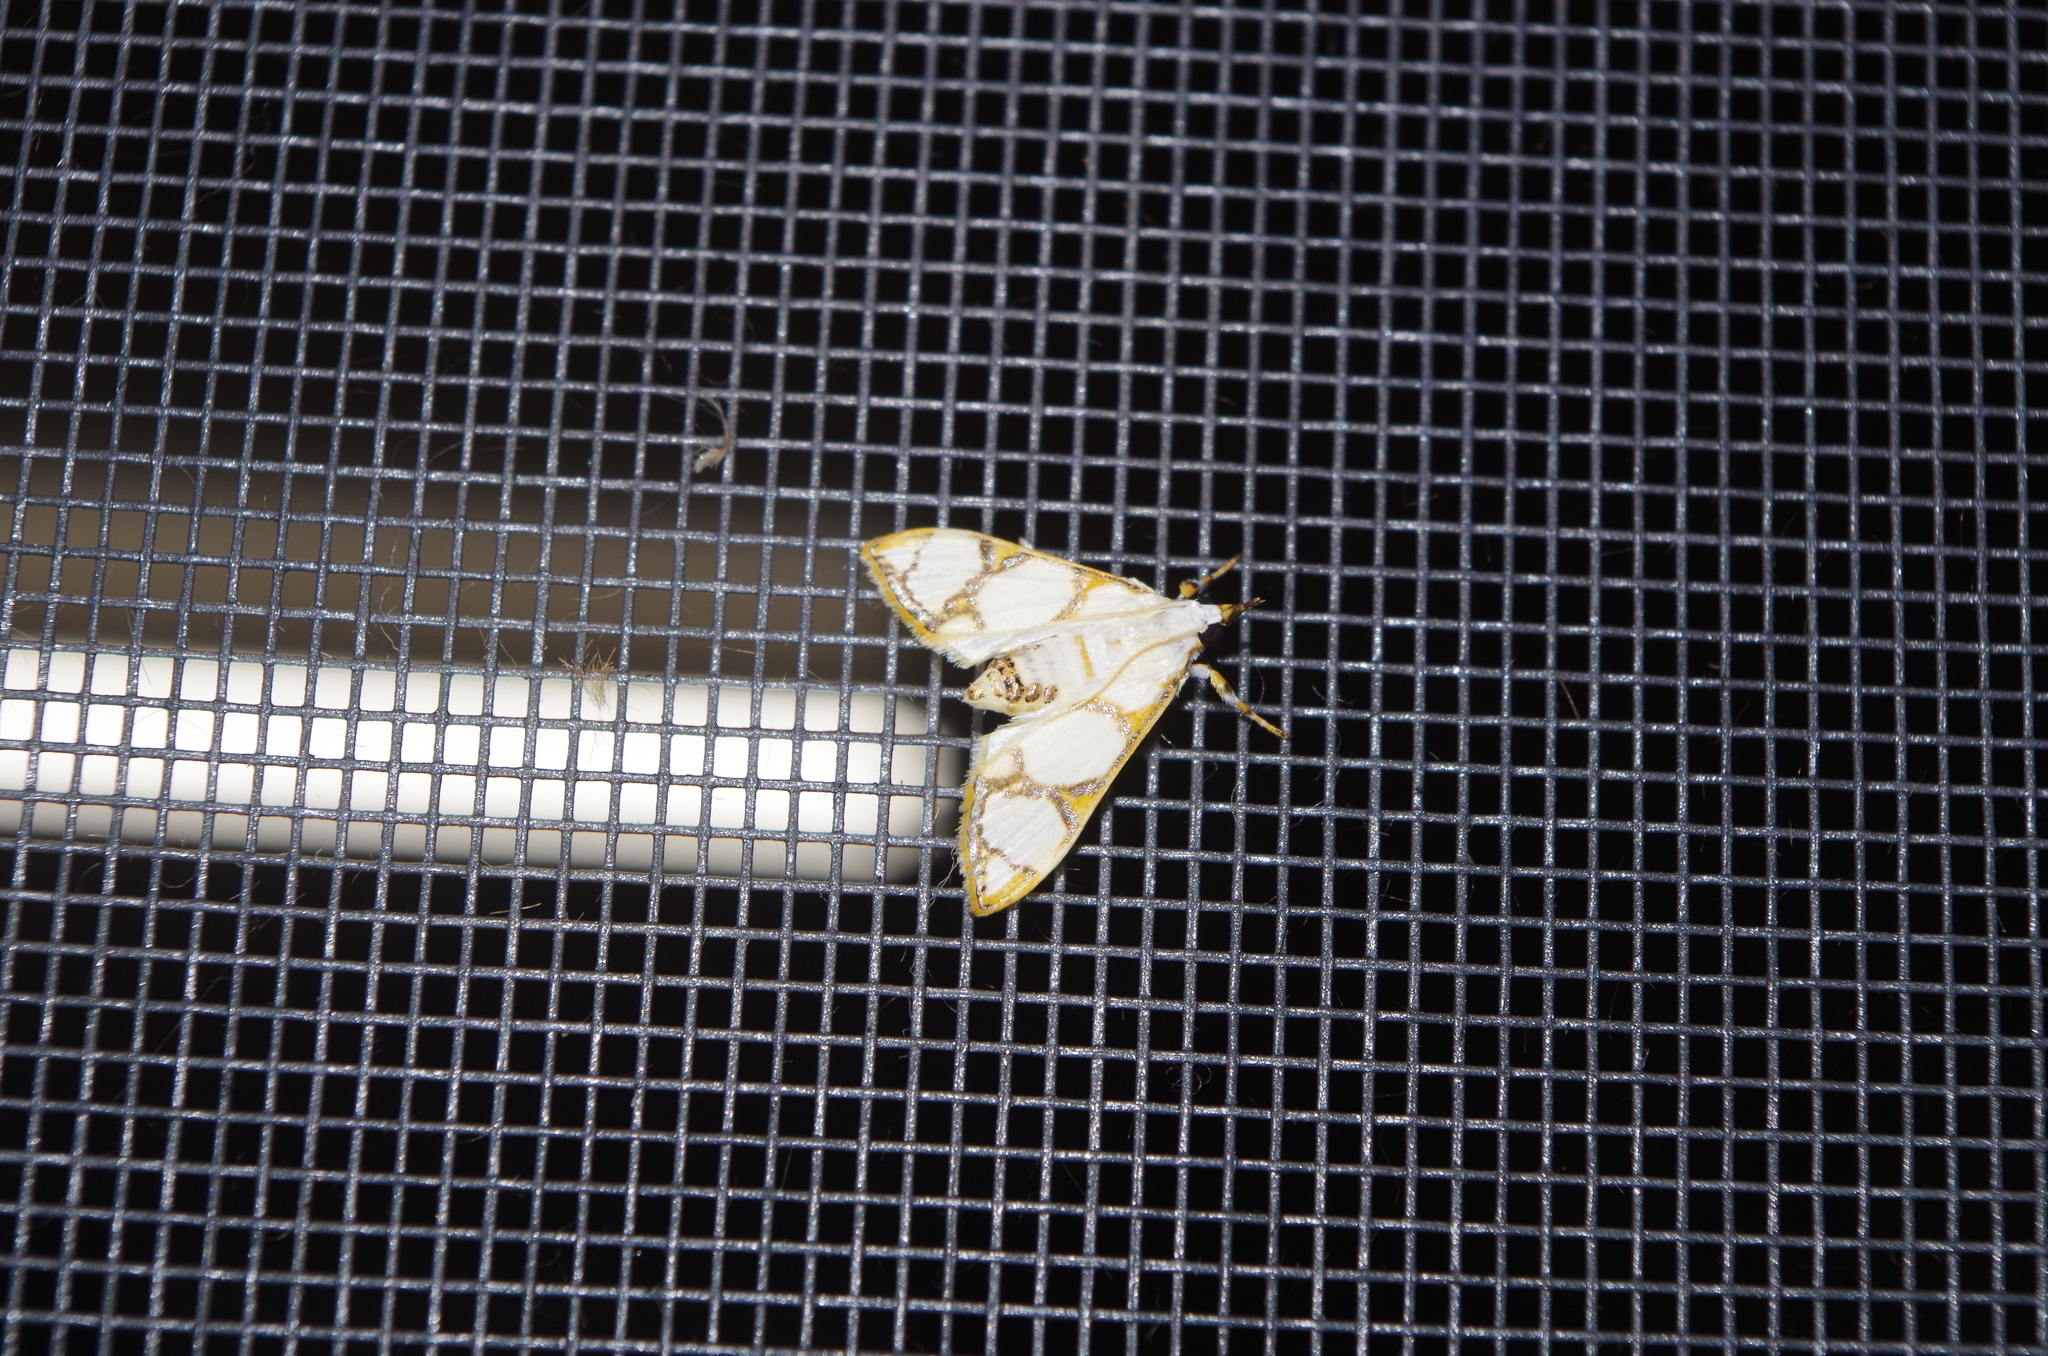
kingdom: Animalia
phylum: Arthropoda
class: Insecta
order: Lepidoptera
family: Crambidae
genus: Cirrhochrista
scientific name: Cirrhochrista kosemponialis
